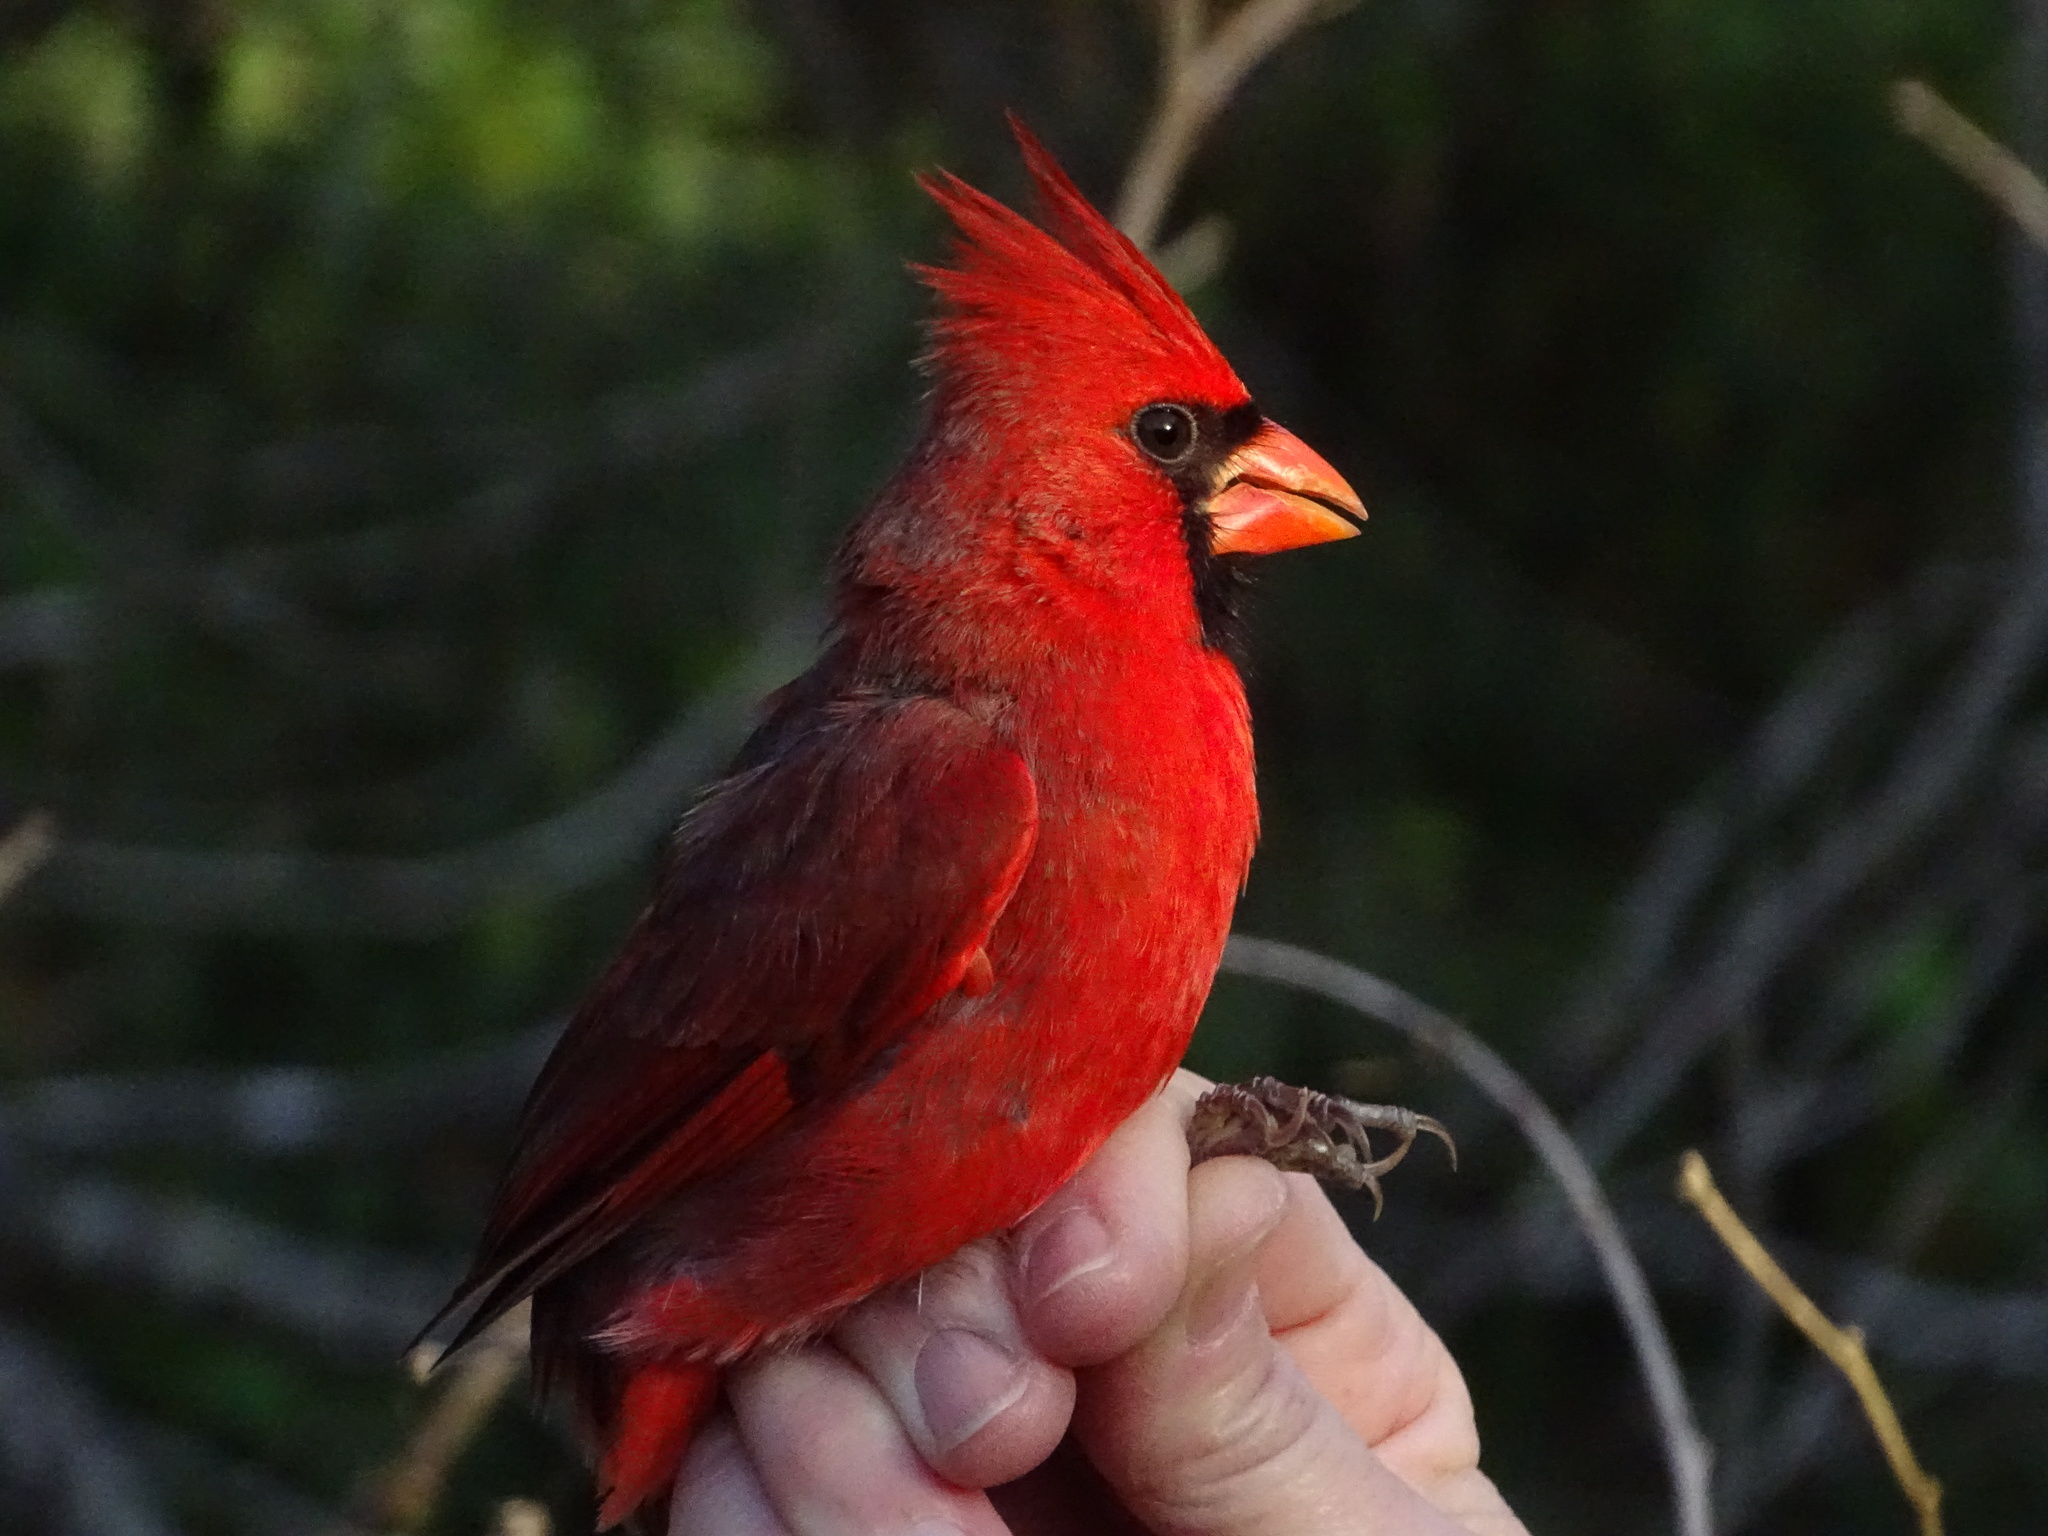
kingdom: Animalia
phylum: Chordata
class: Aves
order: Passeriformes
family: Cardinalidae
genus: Cardinalis
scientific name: Cardinalis cardinalis
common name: Northern cardinal
